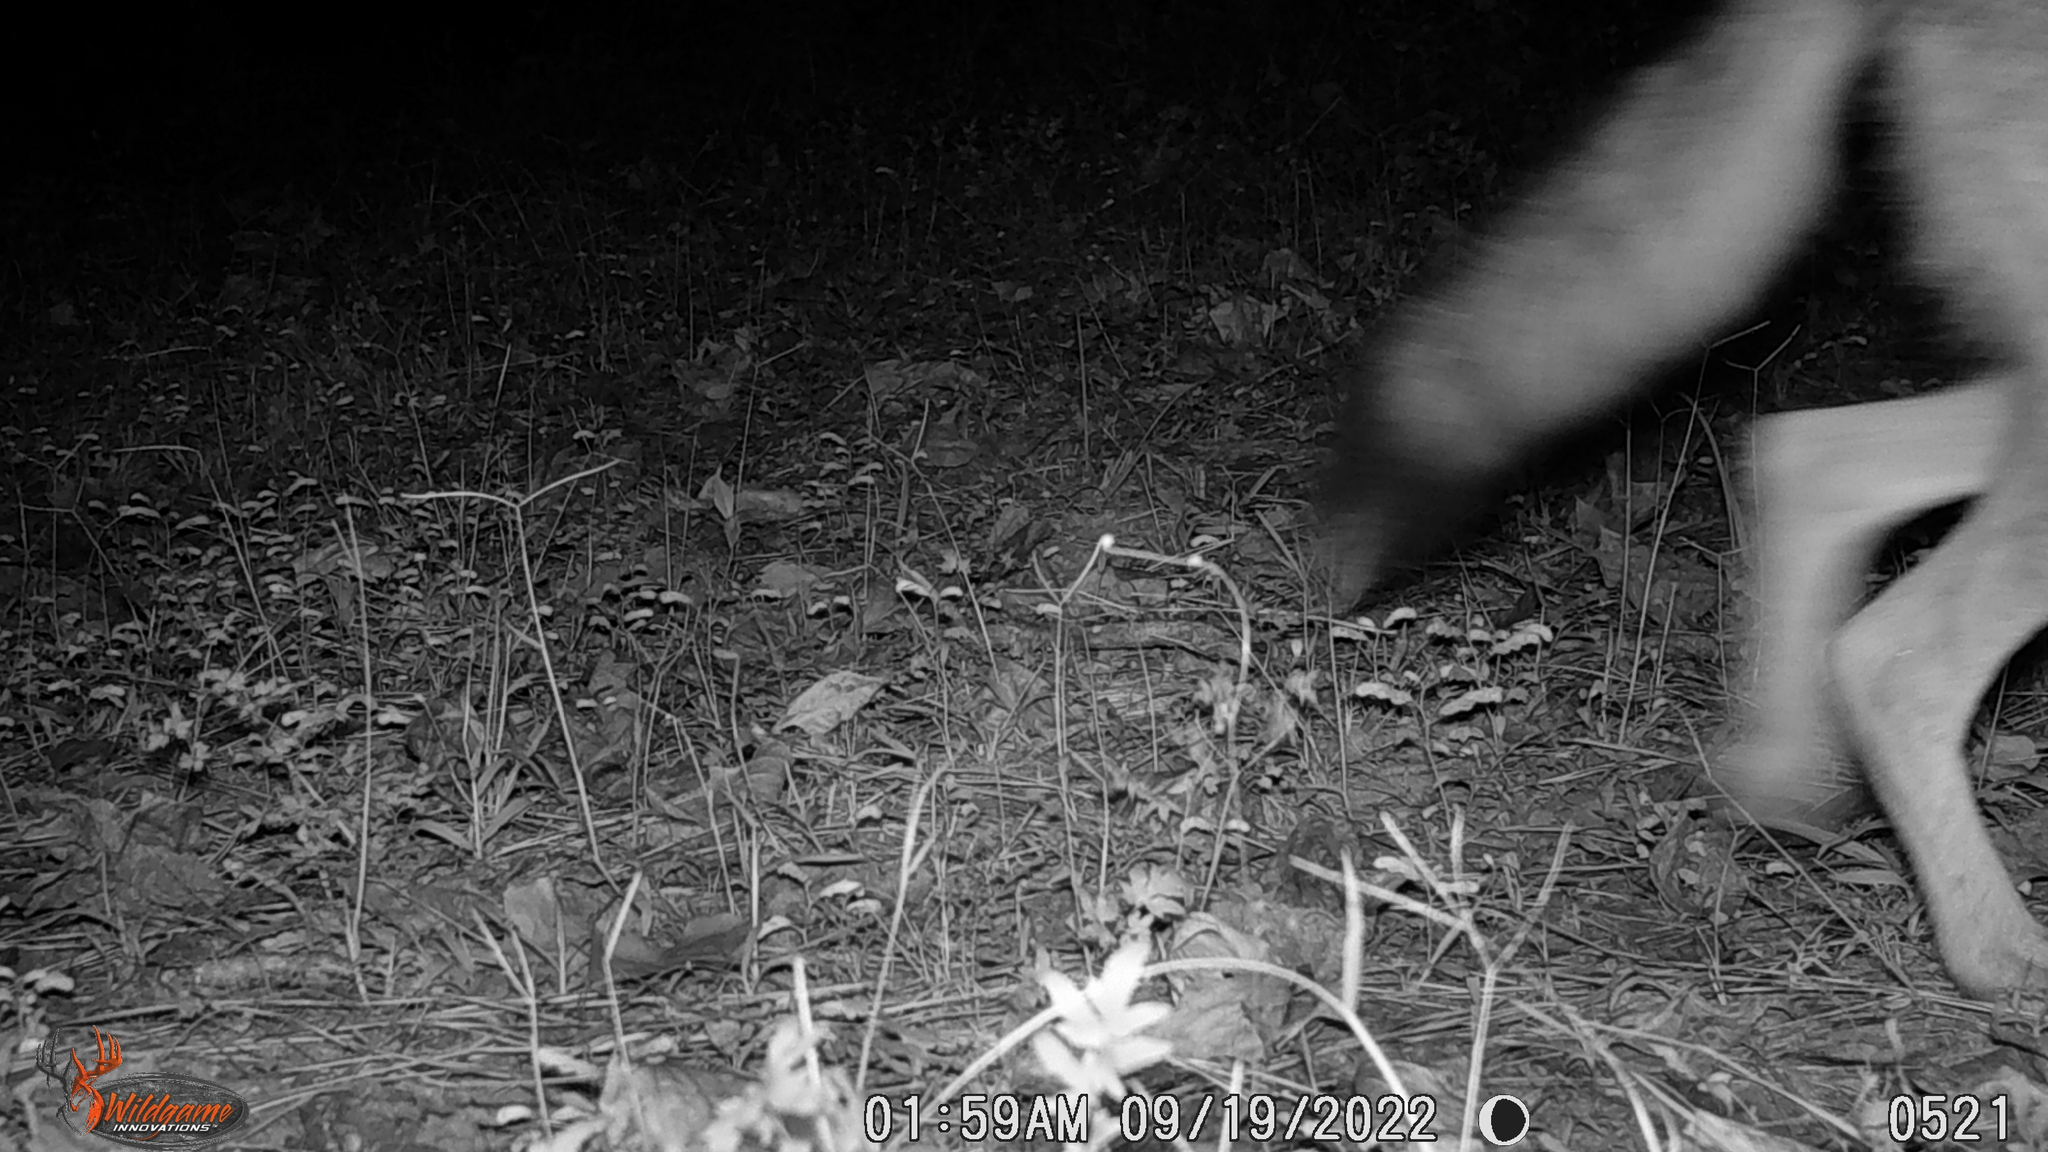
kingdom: Animalia
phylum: Chordata
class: Mammalia
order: Carnivora
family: Canidae
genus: Canis
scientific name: Canis latrans
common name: Coyote
